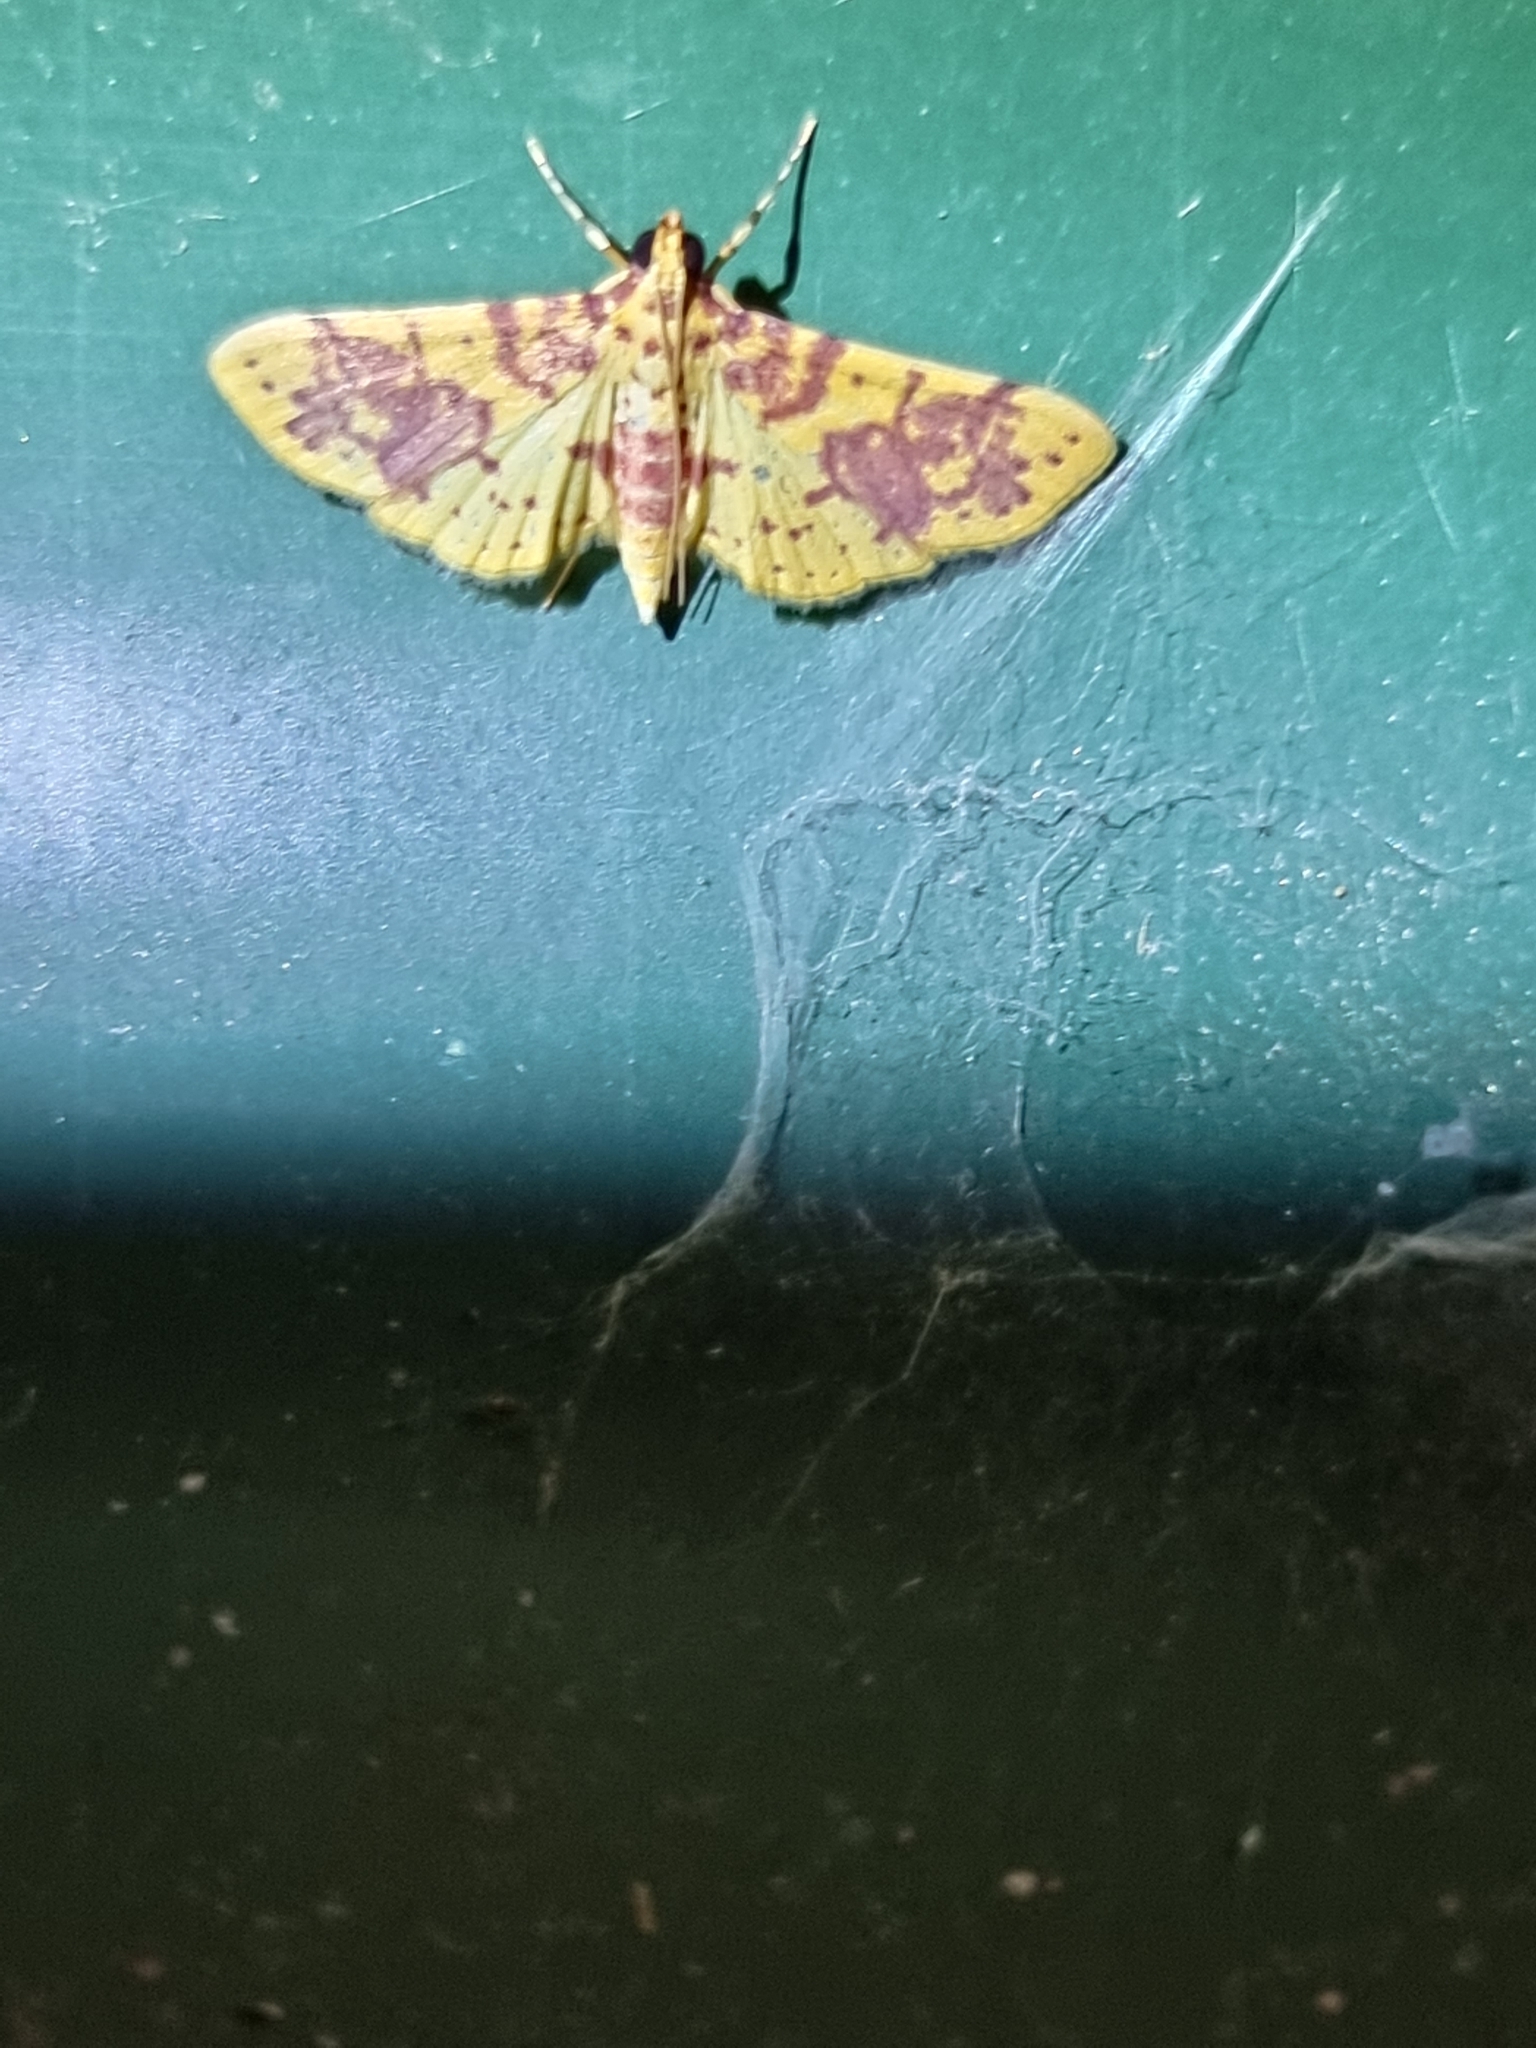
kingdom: Animalia
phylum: Arthropoda
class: Insecta
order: Lepidoptera
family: Crambidae
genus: Conogethes
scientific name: Conogethes haemactalis
